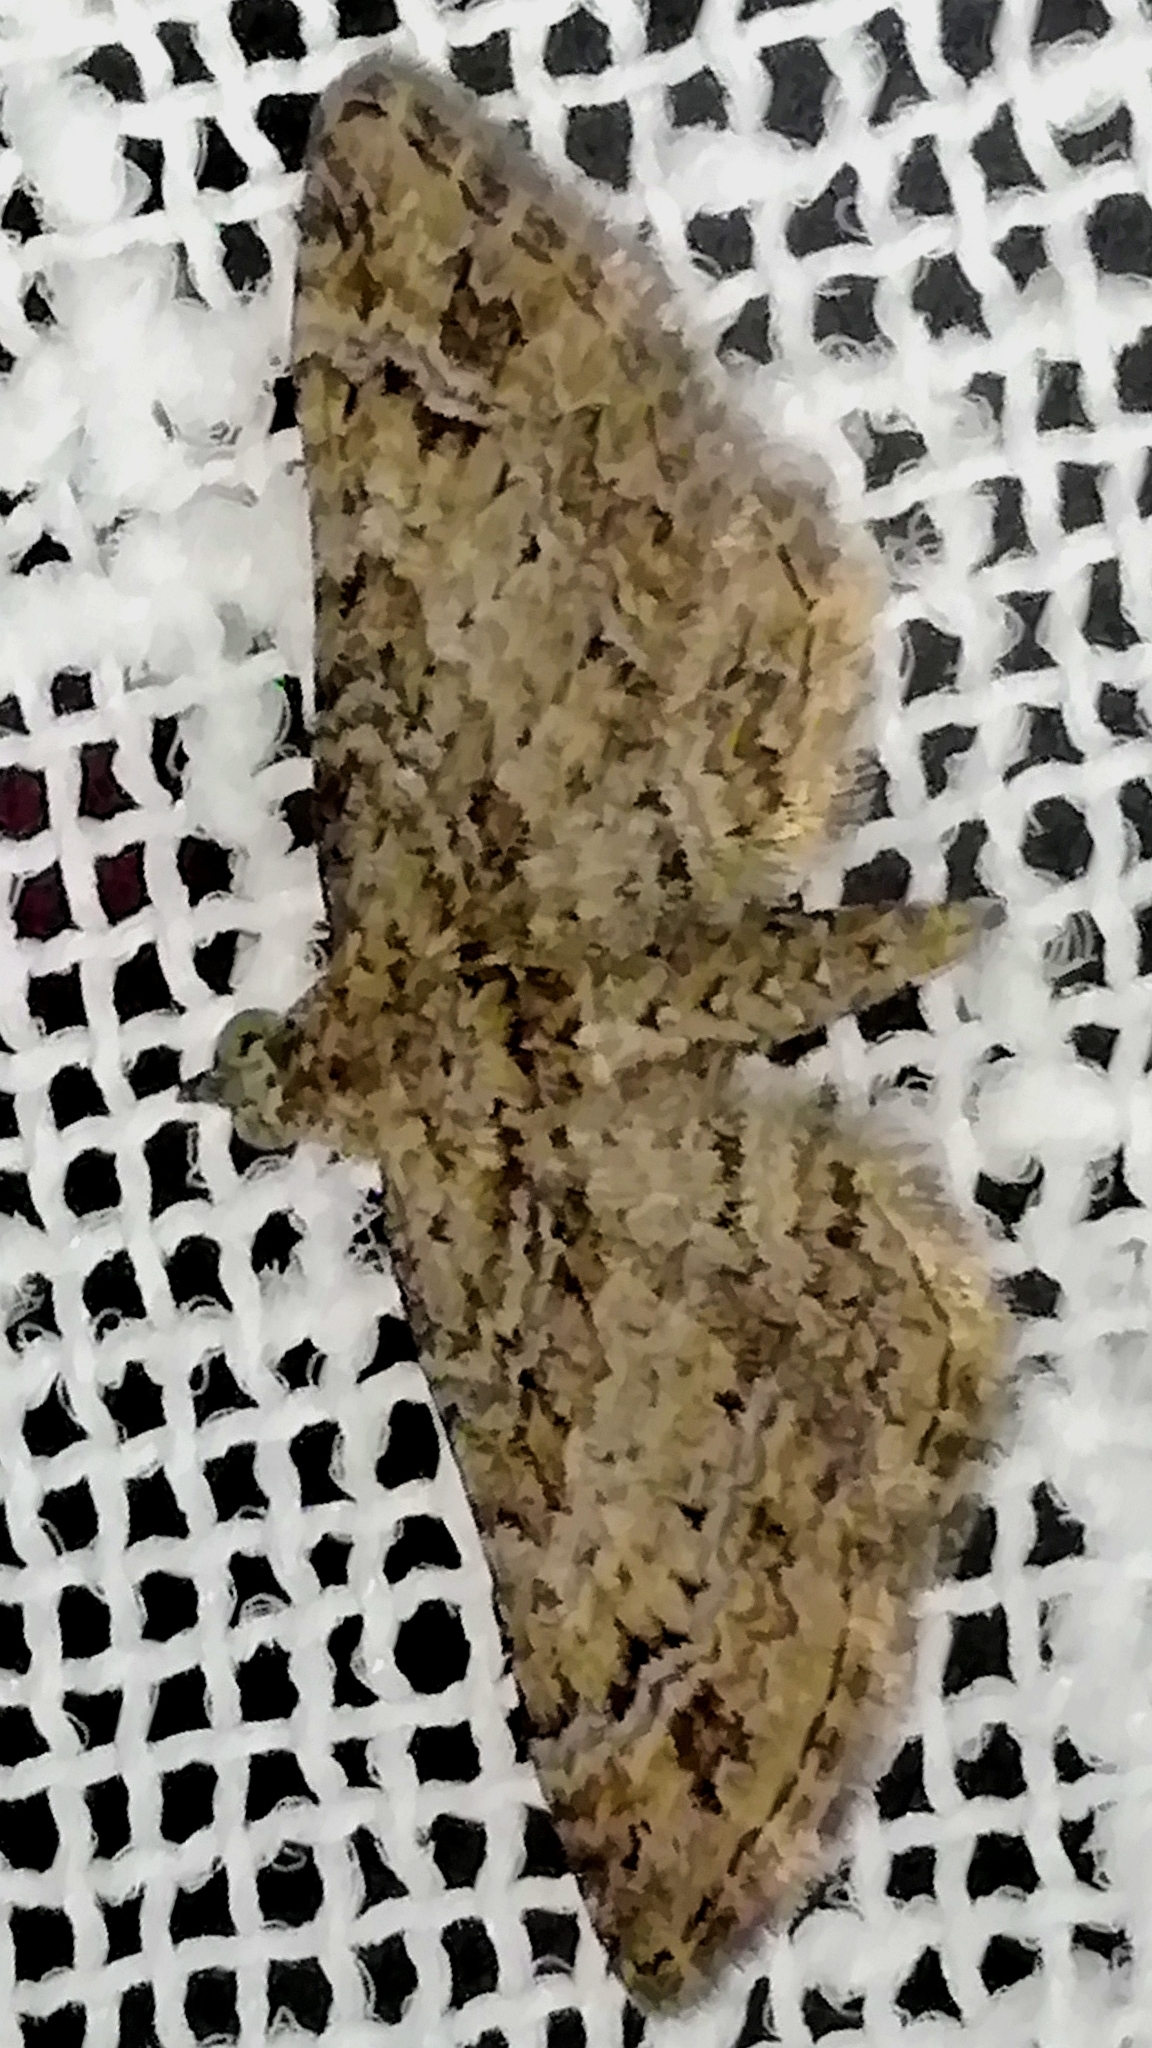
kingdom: Animalia
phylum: Arthropoda
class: Insecta
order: Lepidoptera
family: Geometridae
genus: Gymnoscelis
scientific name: Gymnoscelis rufifasciata
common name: Double-striped pug
